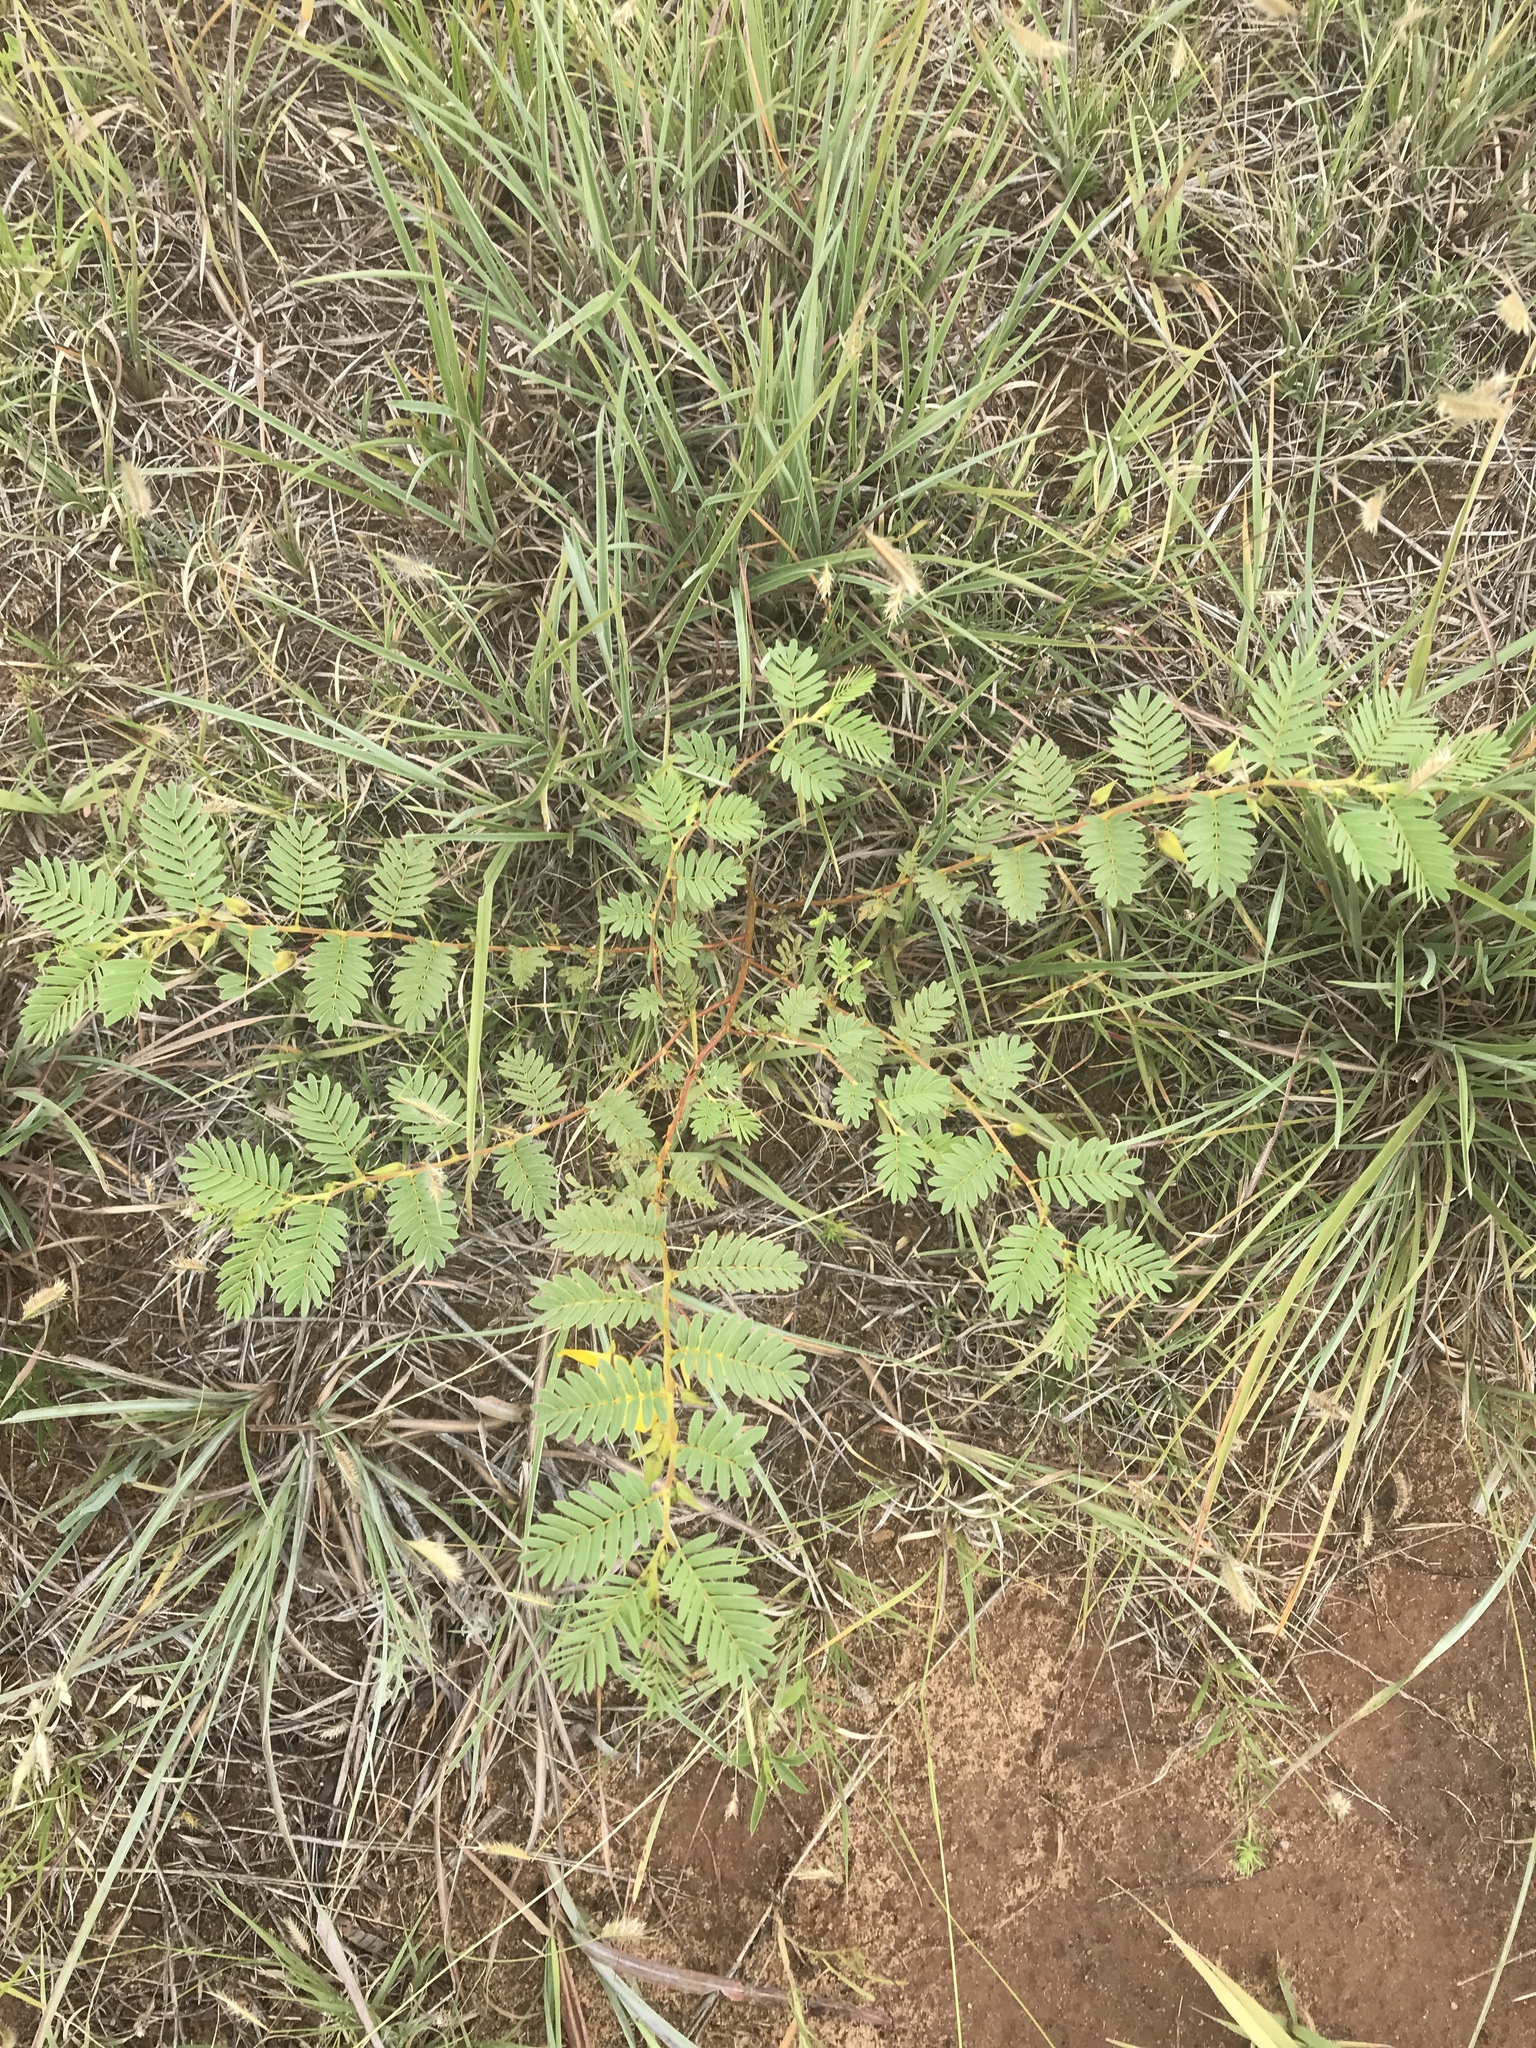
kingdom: Plantae
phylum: Tracheophyta
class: Magnoliopsida
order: Fabales
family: Fabaceae
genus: Chamaecrista
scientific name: Chamaecrista fasciculata
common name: Golden cassia
